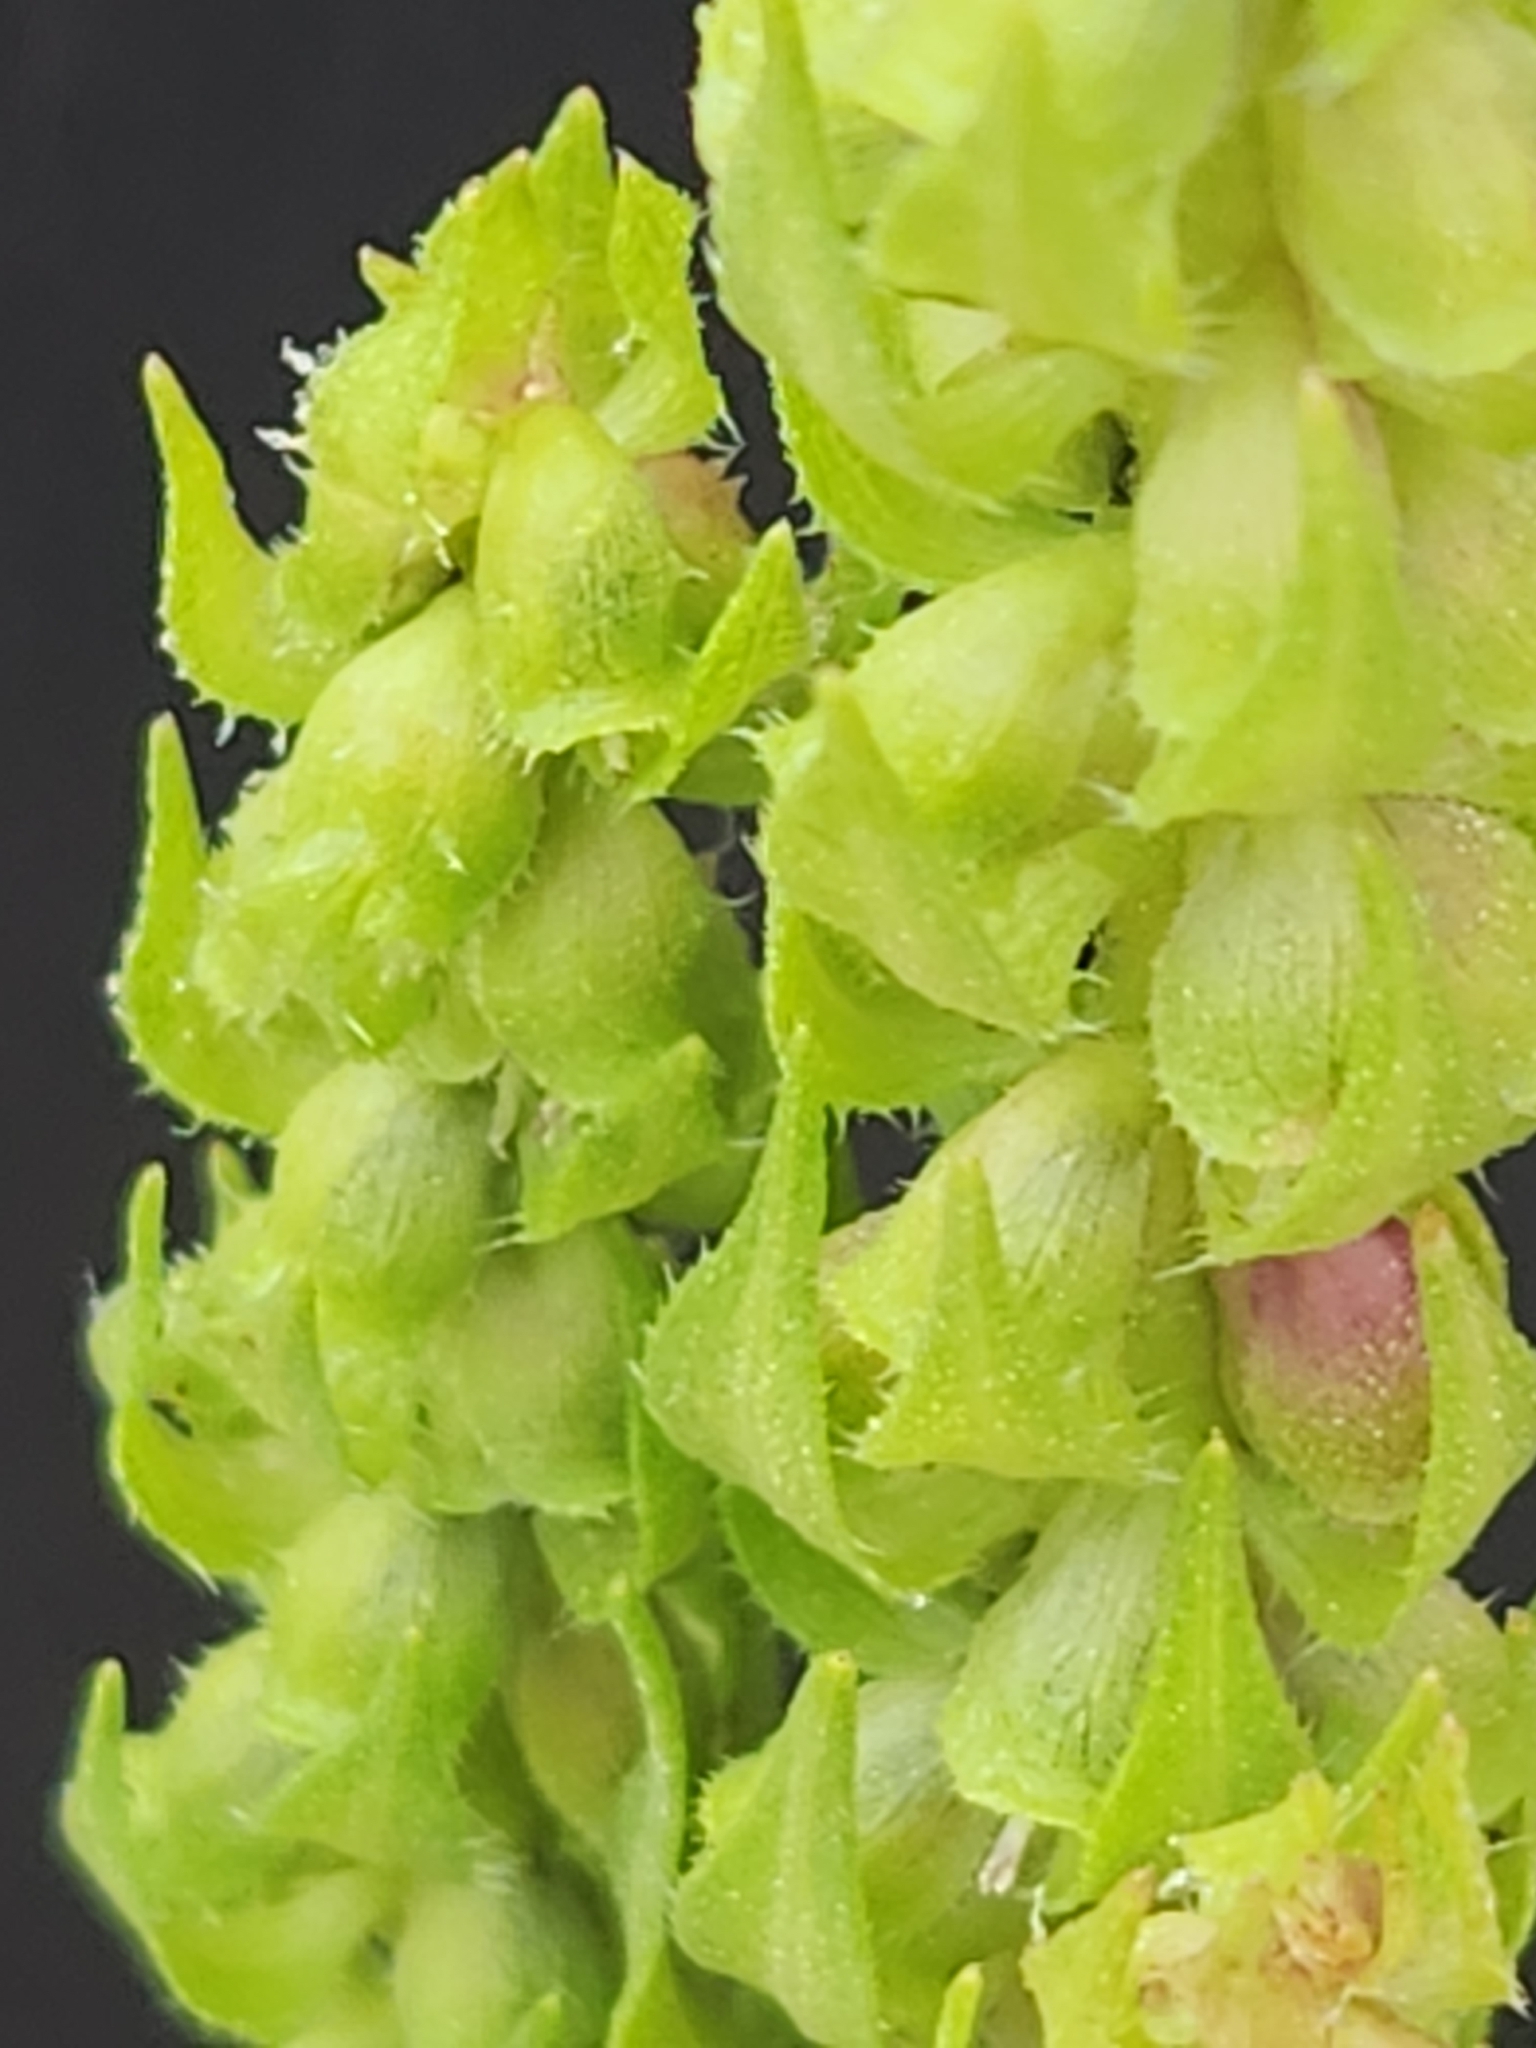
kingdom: Plantae
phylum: Tracheophyta
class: Magnoliopsida
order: Asterales
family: Asteraceae
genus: Iva
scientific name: Iva annua
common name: Marsh-elder
